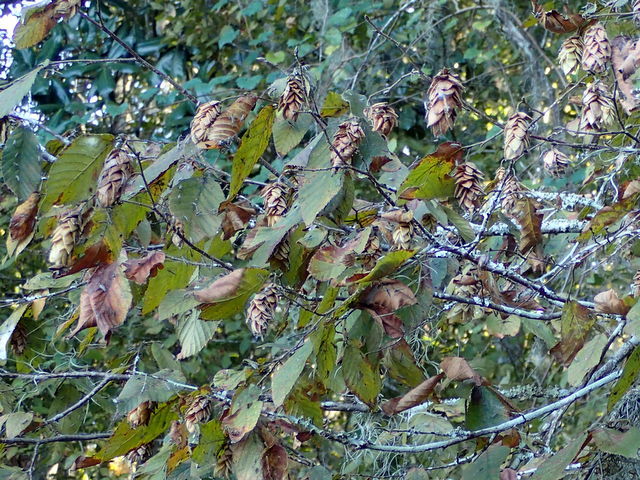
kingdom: Plantae
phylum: Tracheophyta
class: Magnoliopsida
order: Fagales
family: Betulaceae
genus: Ostrya
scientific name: Ostrya virginiana
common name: Ironwood
